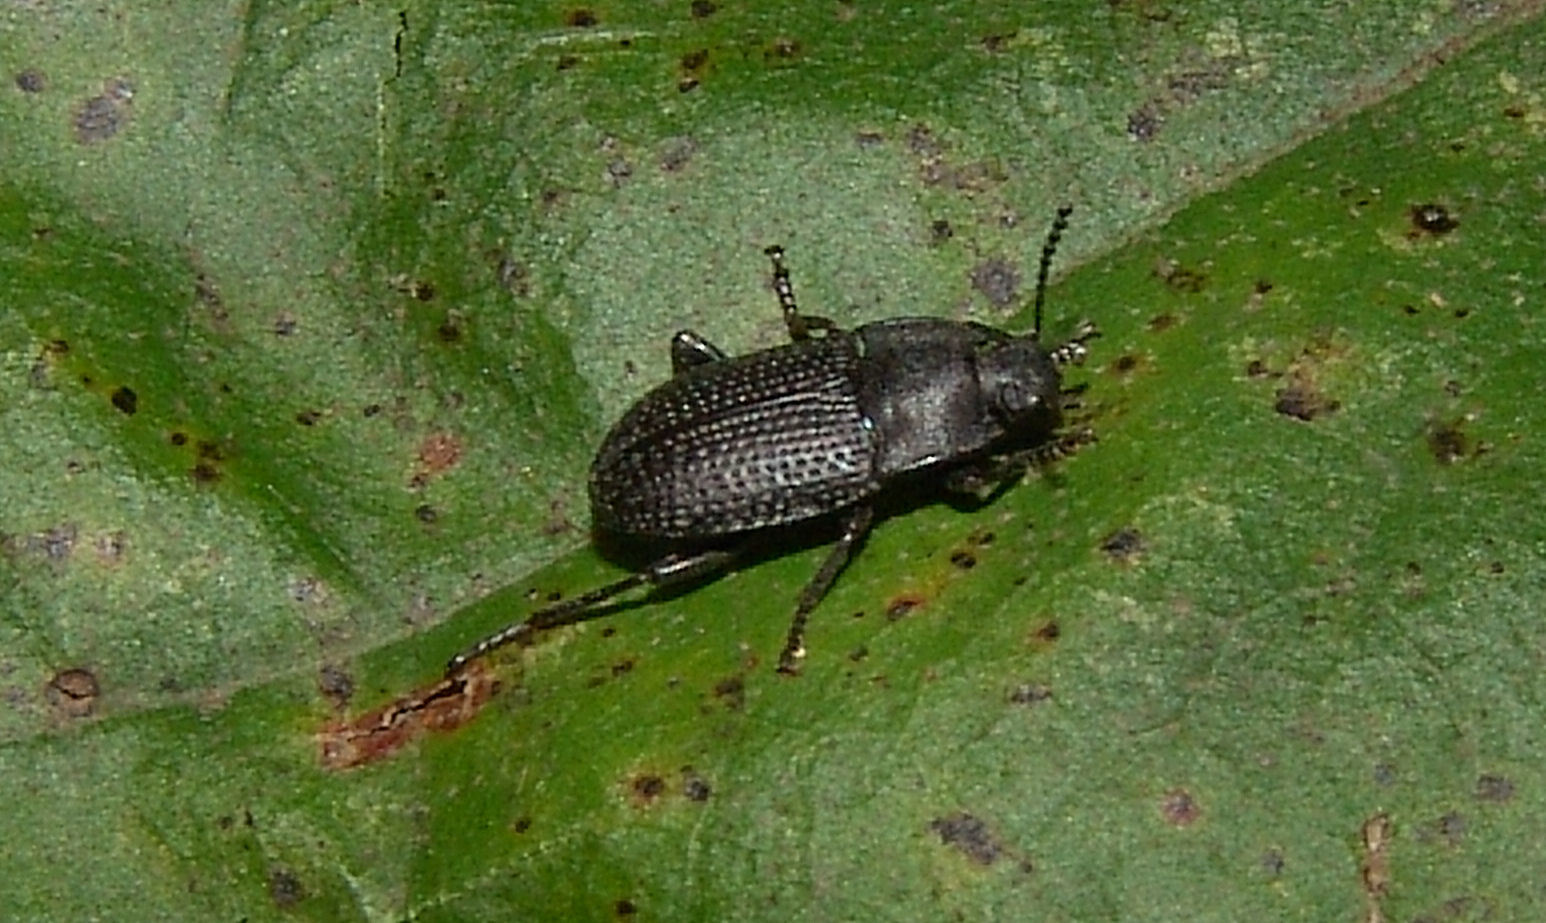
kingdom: Animalia
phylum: Arthropoda
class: Insecta
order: Coleoptera
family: Tenebrionidae
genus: Asiopus
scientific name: Asiopus
